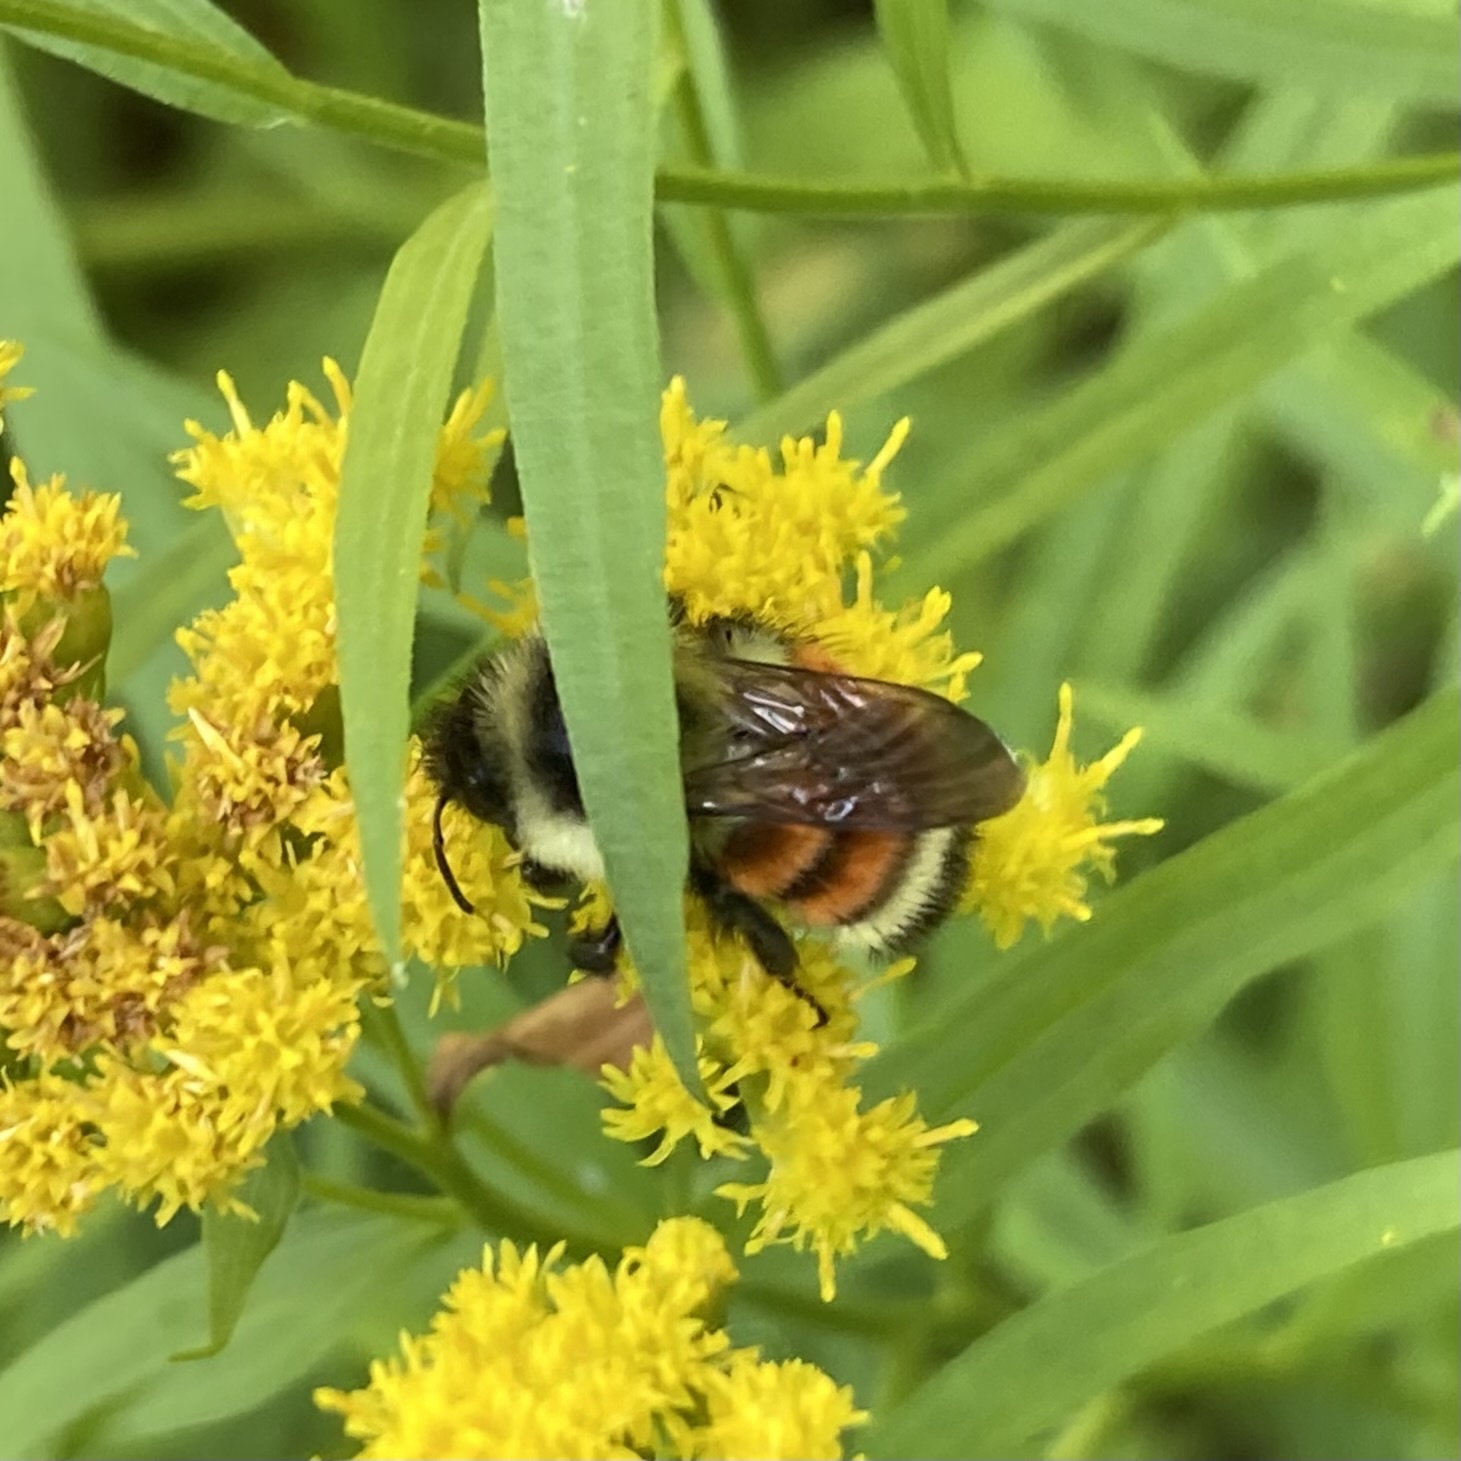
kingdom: Animalia
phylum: Arthropoda
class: Insecta
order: Hymenoptera
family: Apidae
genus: Bombus
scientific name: Bombus ternarius
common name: Tri-colored bumble bee
